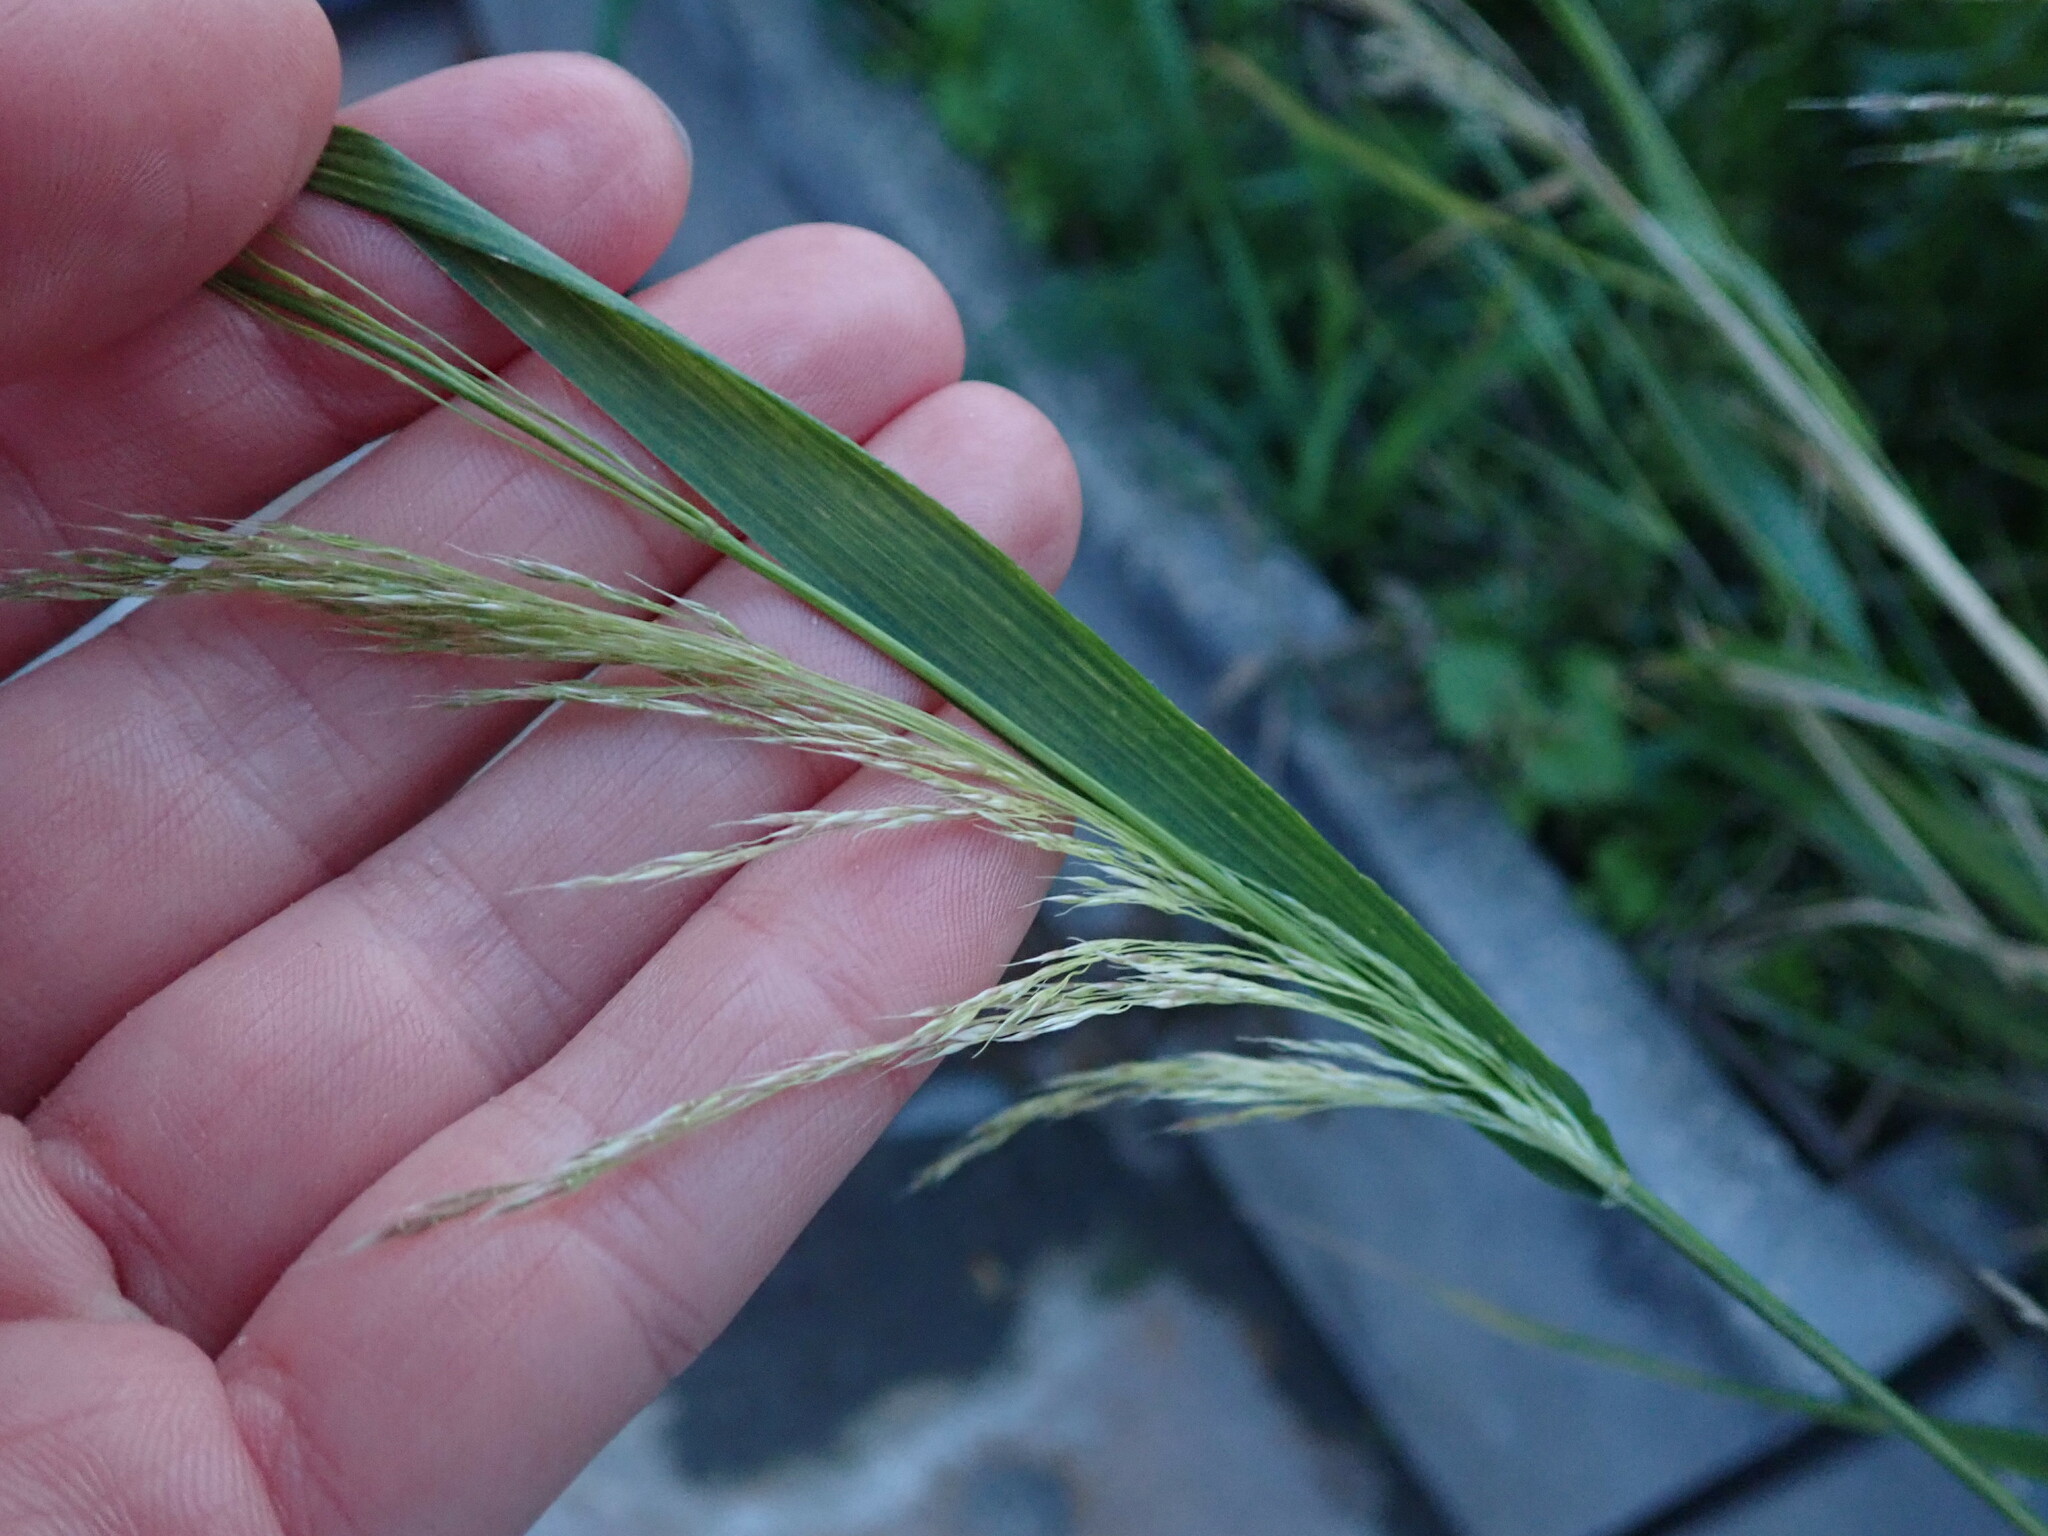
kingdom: Plantae
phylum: Tracheophyta
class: Liliopsida
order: Poales
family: Poaceae
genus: Oloptum
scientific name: Oloptum miliaceum
